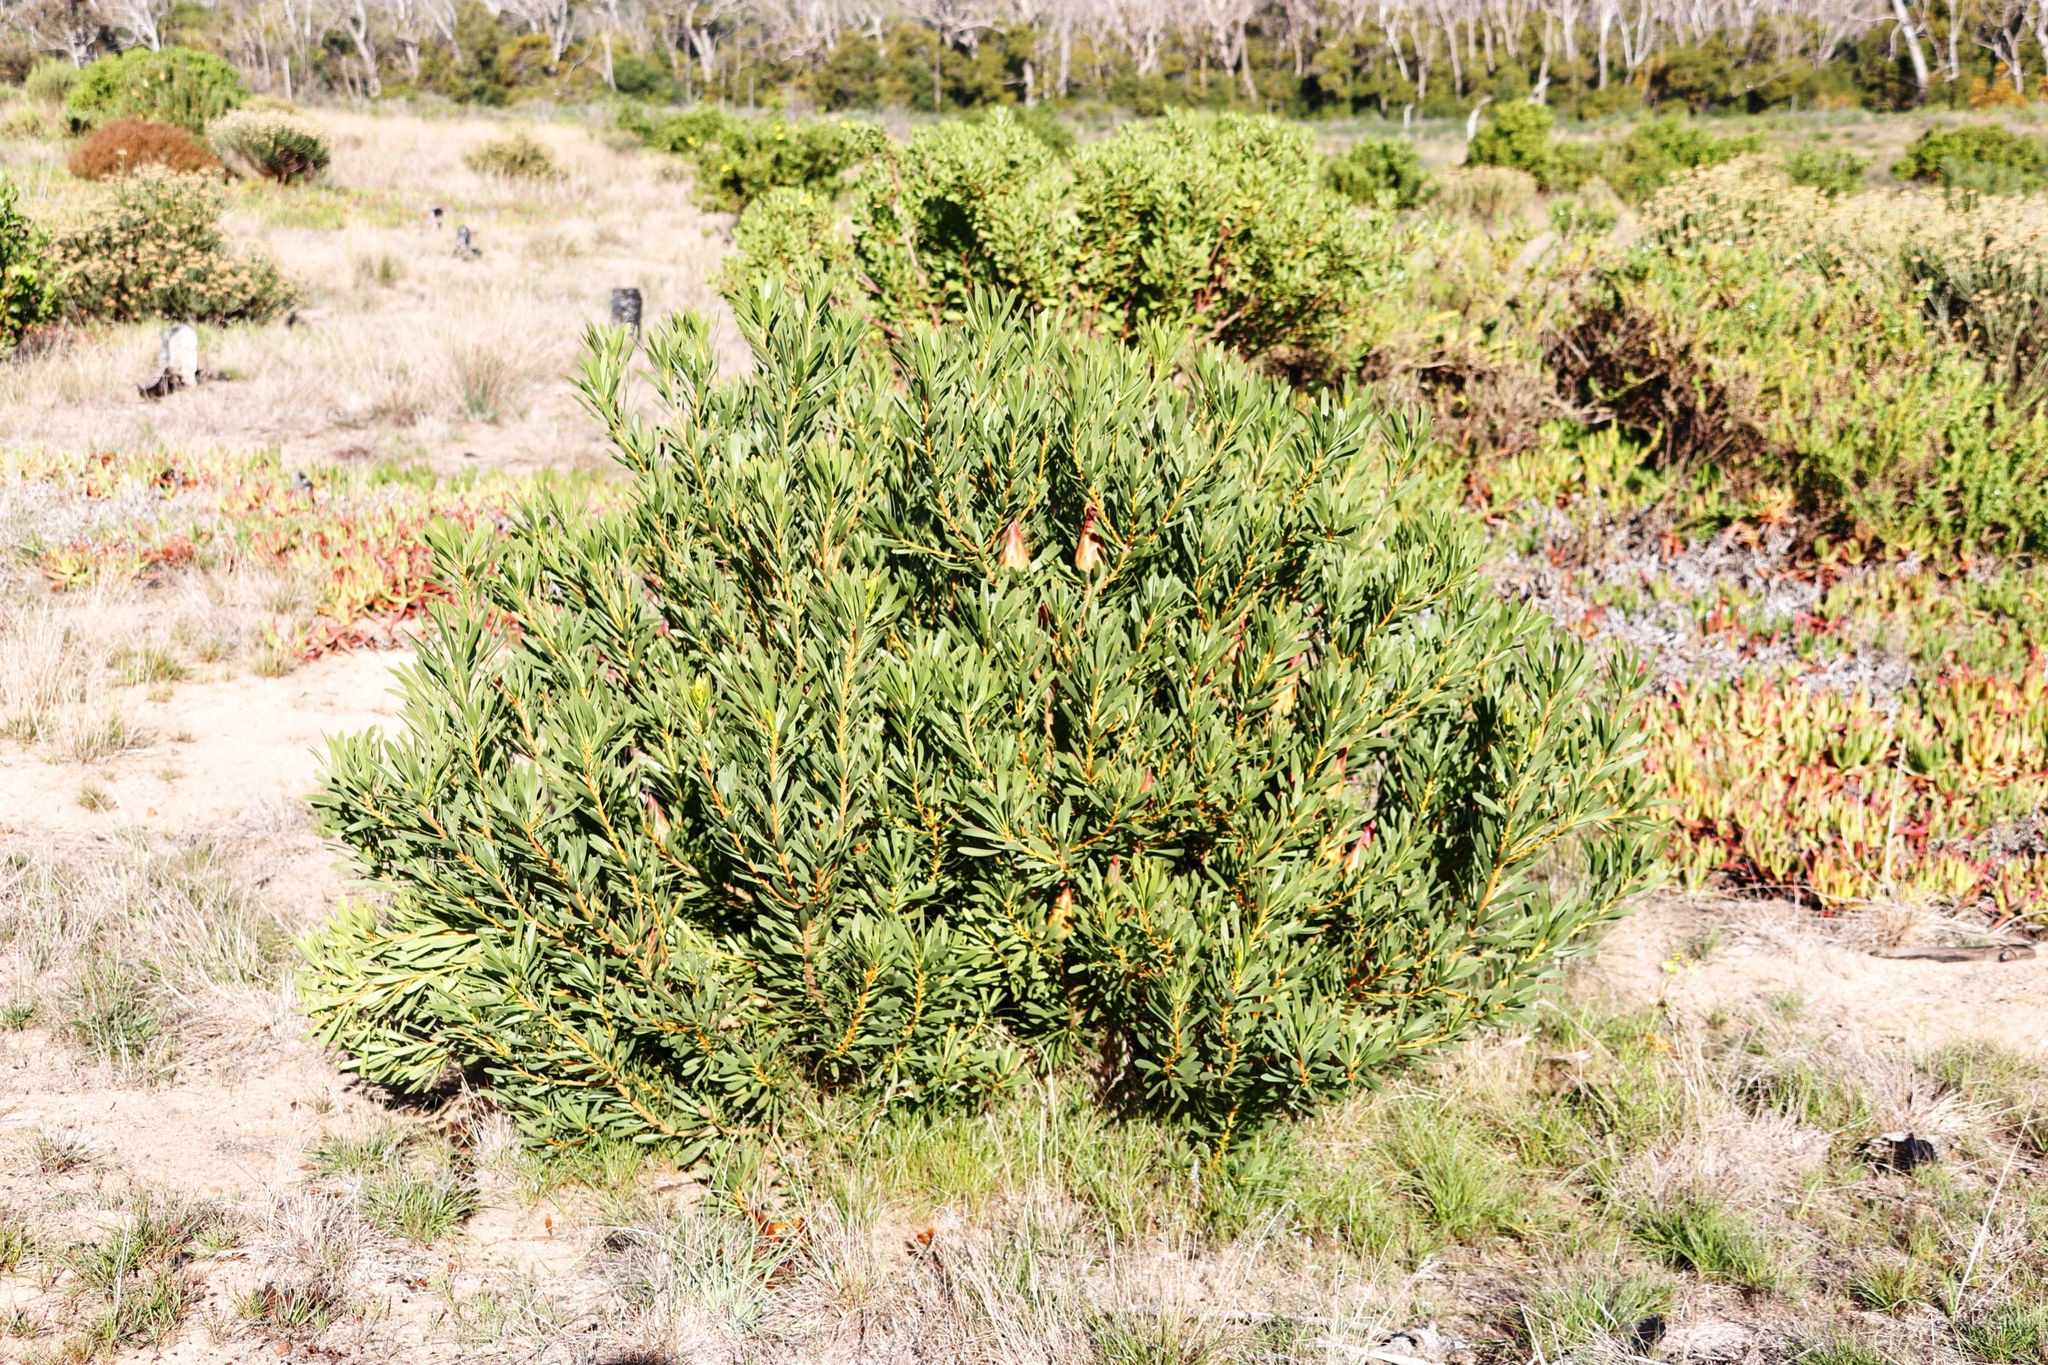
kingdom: Plantae
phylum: Tracheophyta
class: Magnoliopsida
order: Proteales
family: Proteaceae
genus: Protea
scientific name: Protea repens
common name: Sugarbush
